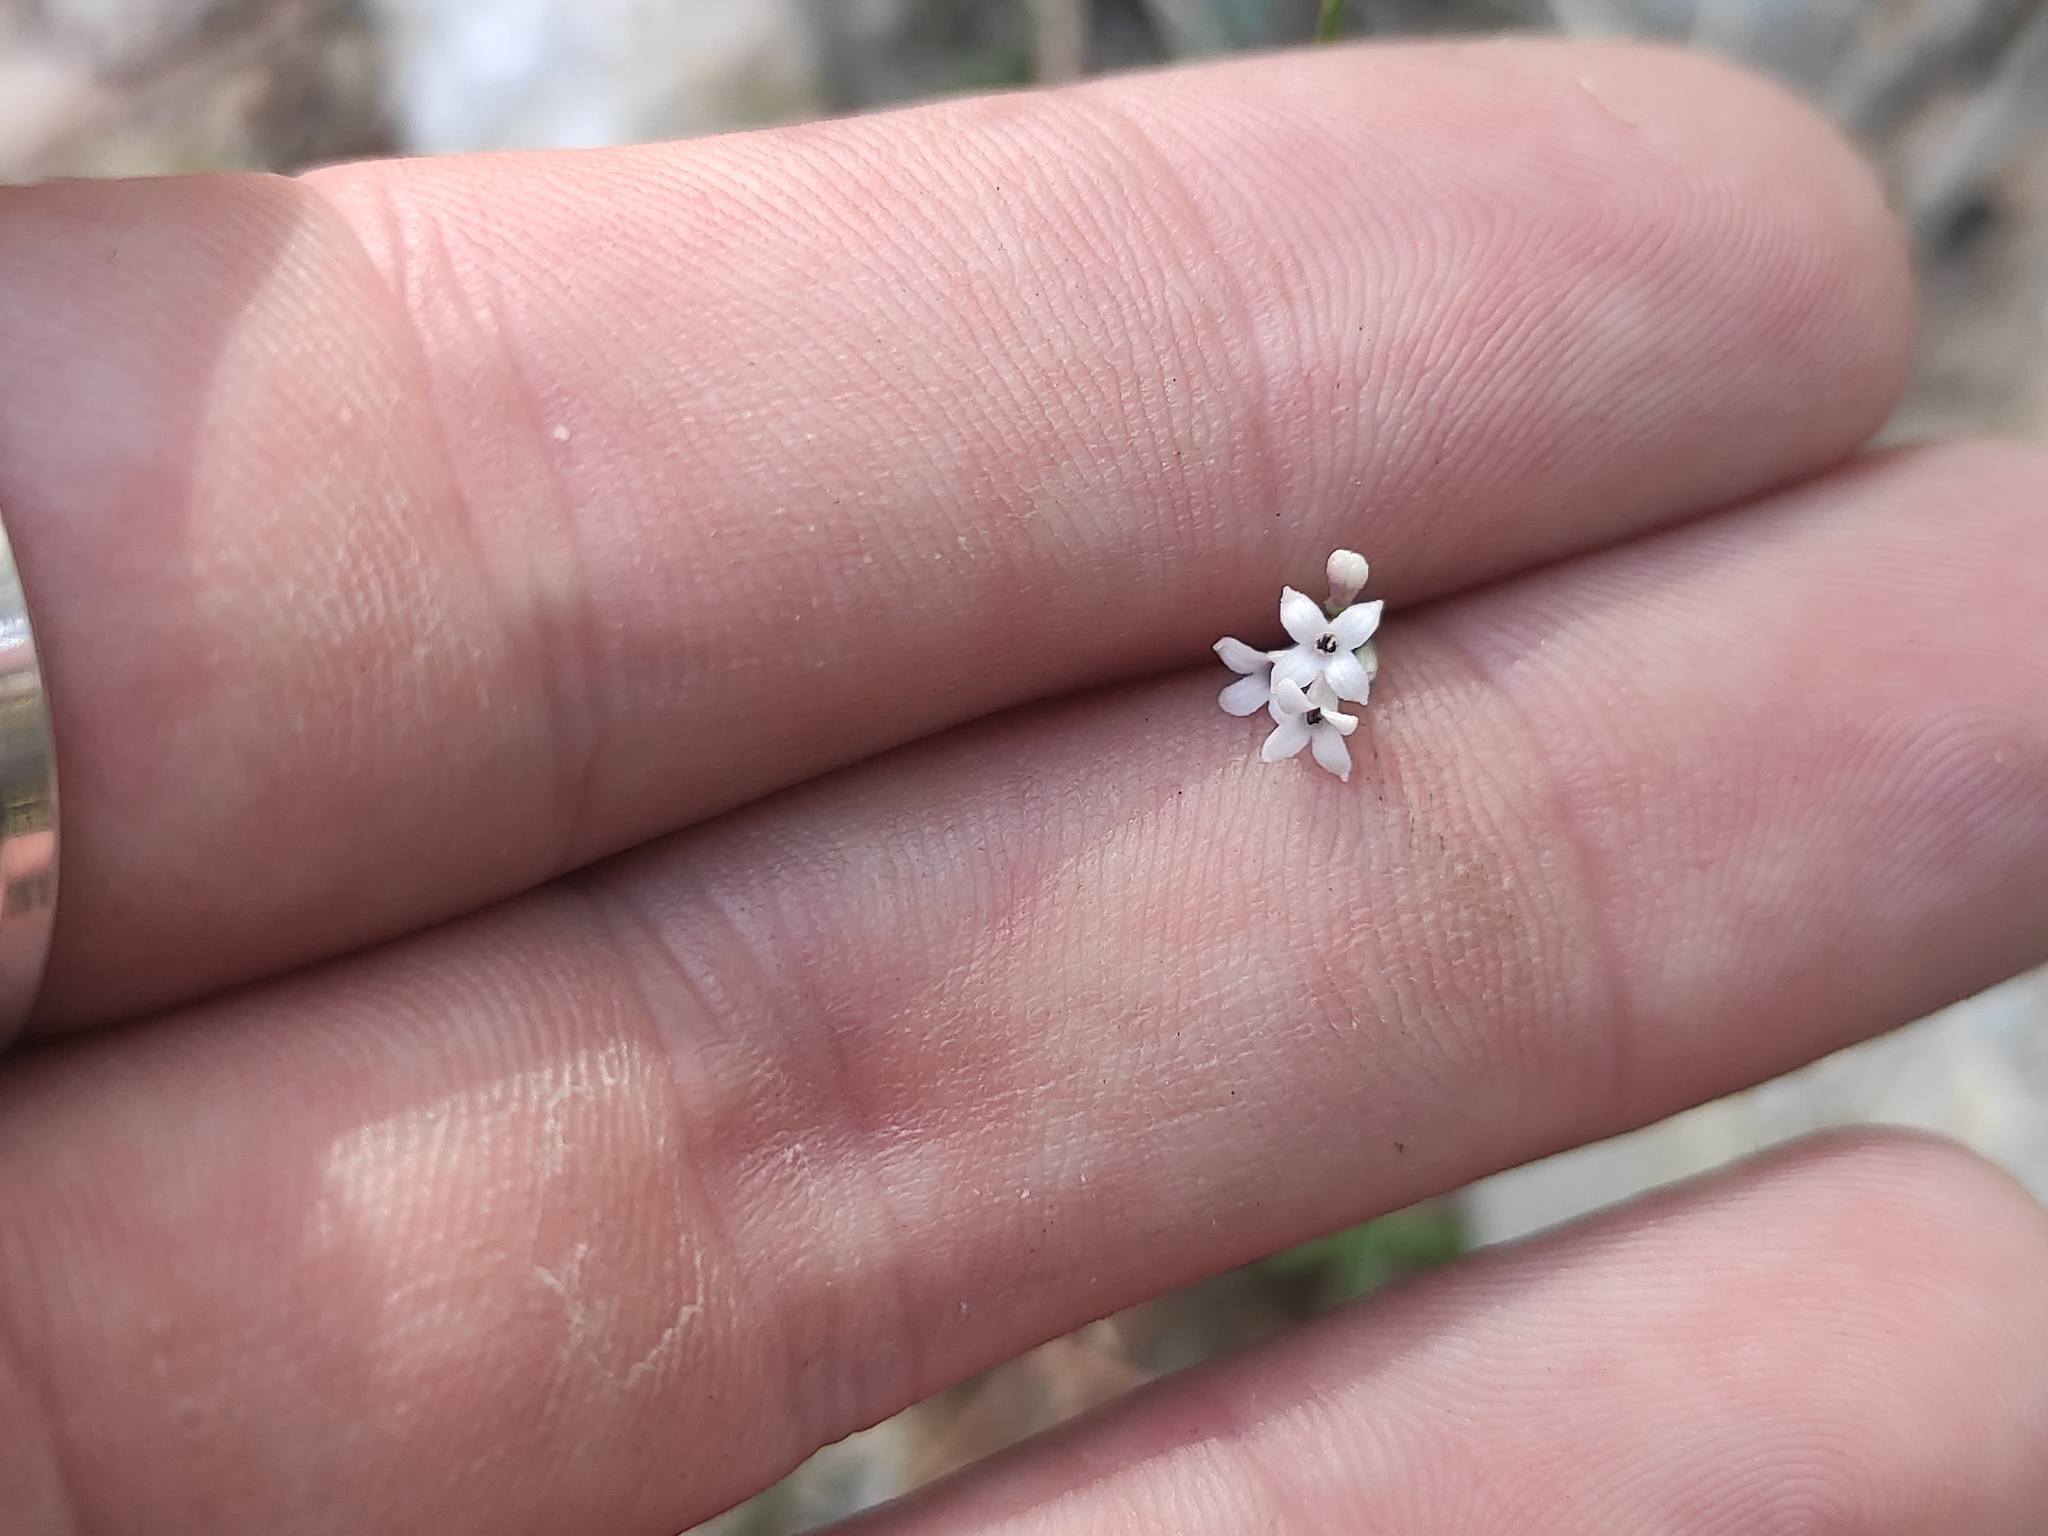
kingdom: Plantae
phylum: Tracheophyta
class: Magnoliopsida
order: Gentianales
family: Rubiaceae
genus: Cynanchica
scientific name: Cynanchica pyrenaica
